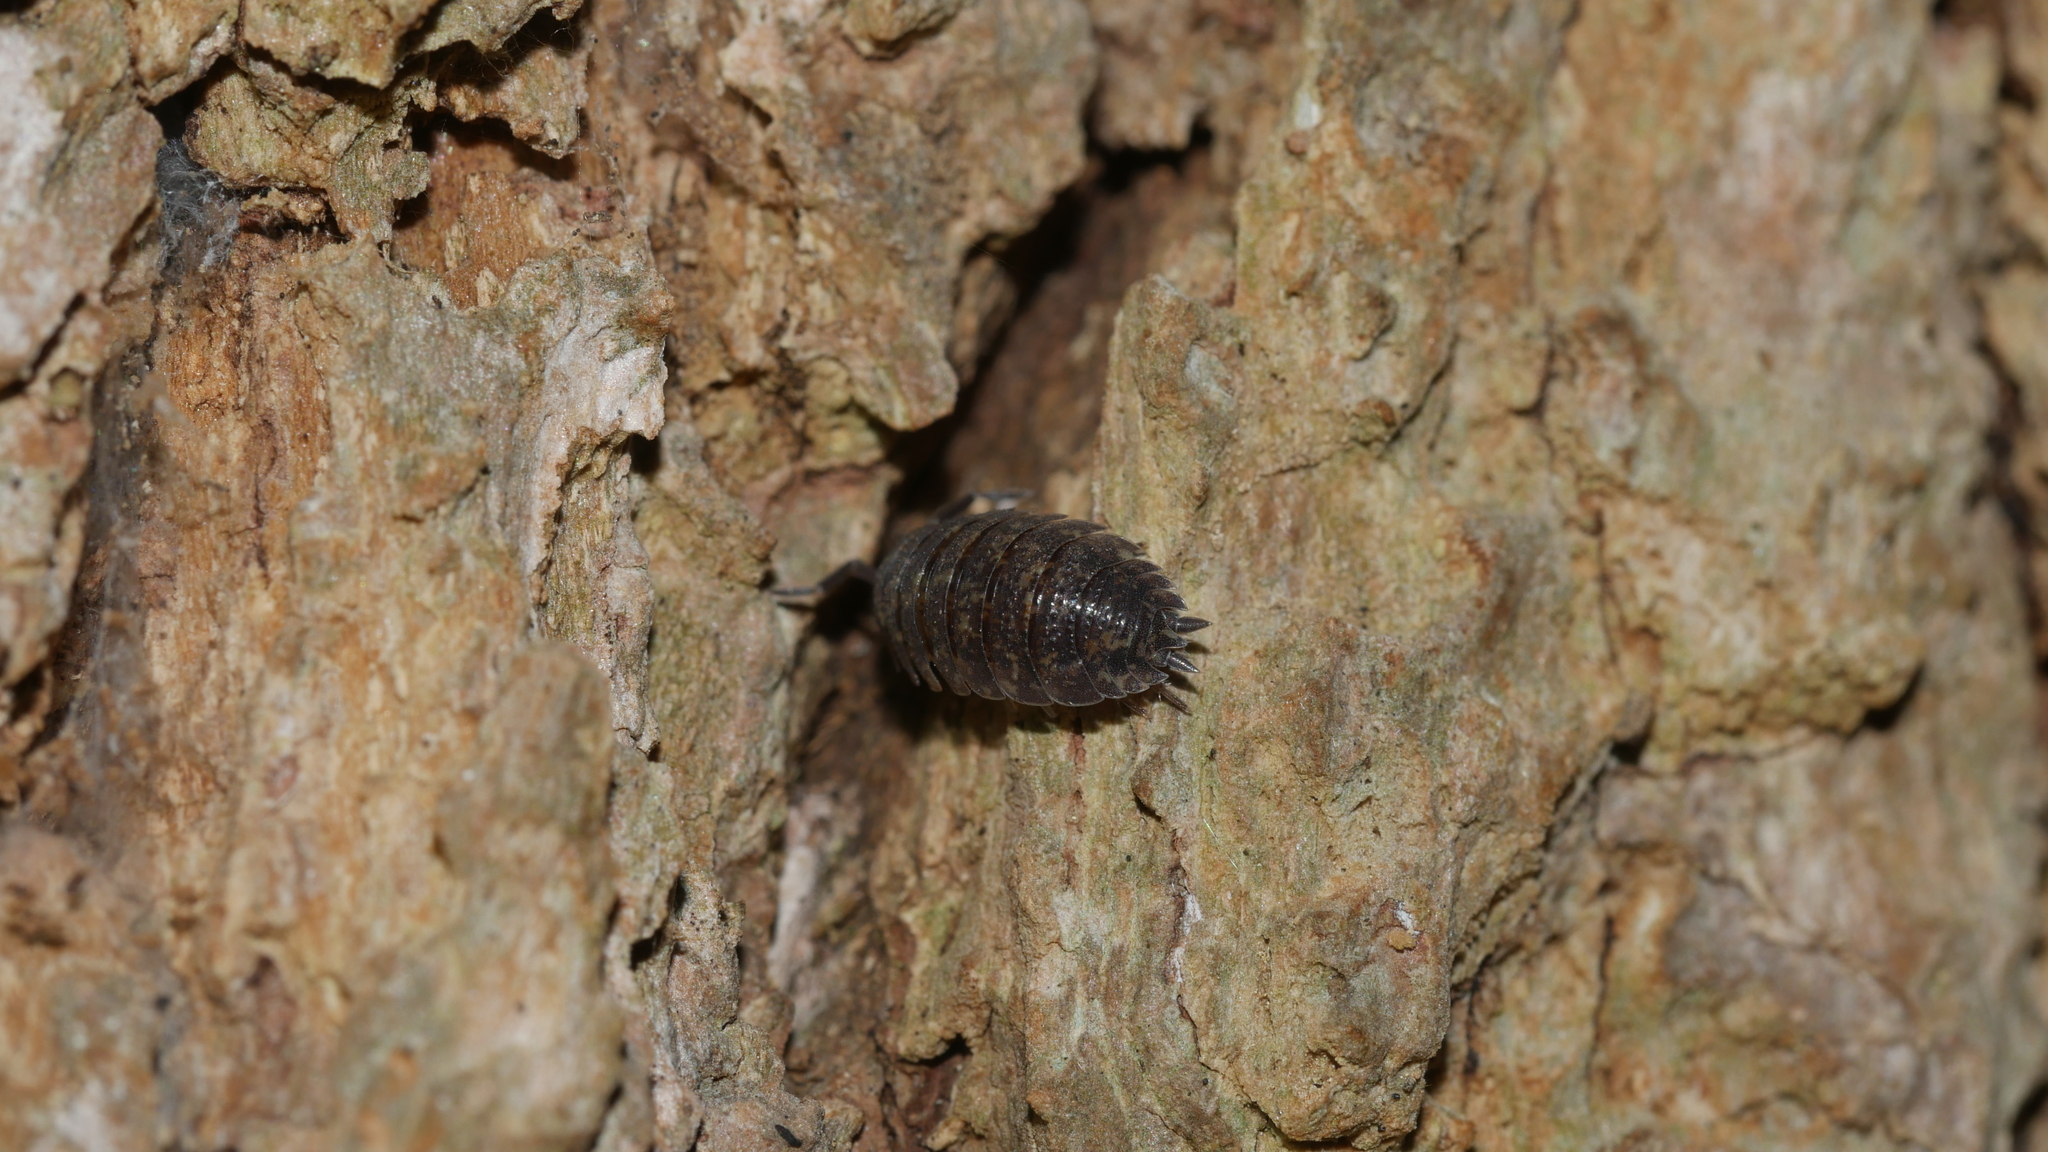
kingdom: Animalia
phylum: Arthropoda
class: Malacostraca
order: Isopoda
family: Porcellionidae
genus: Porcellio
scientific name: Porcellio scaber
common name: Common rough woodlouse
